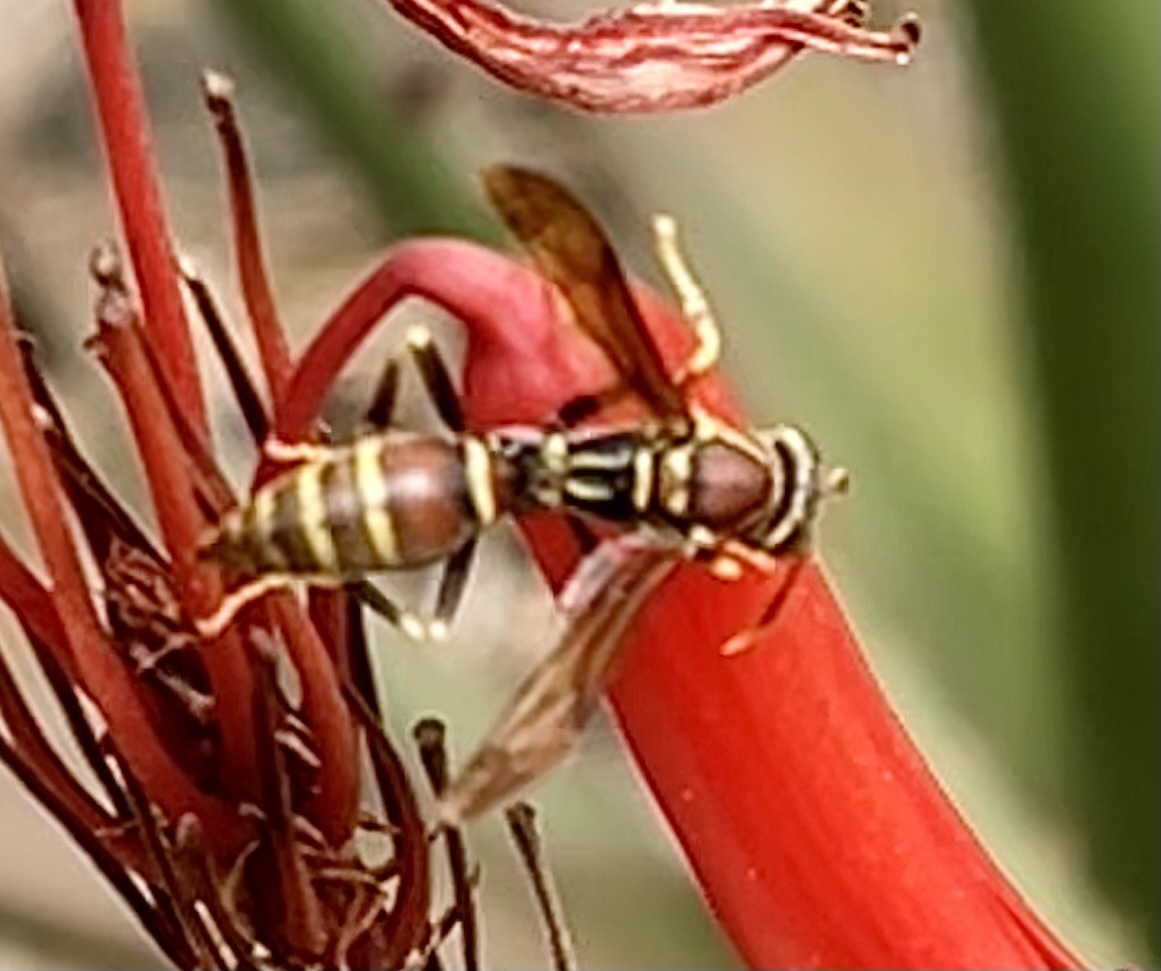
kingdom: Animalia
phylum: Arthropoda
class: Insecta
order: Hymenoptera
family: Eumenidae
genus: Polistes
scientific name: Polistes exclamans
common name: Paper wasp
